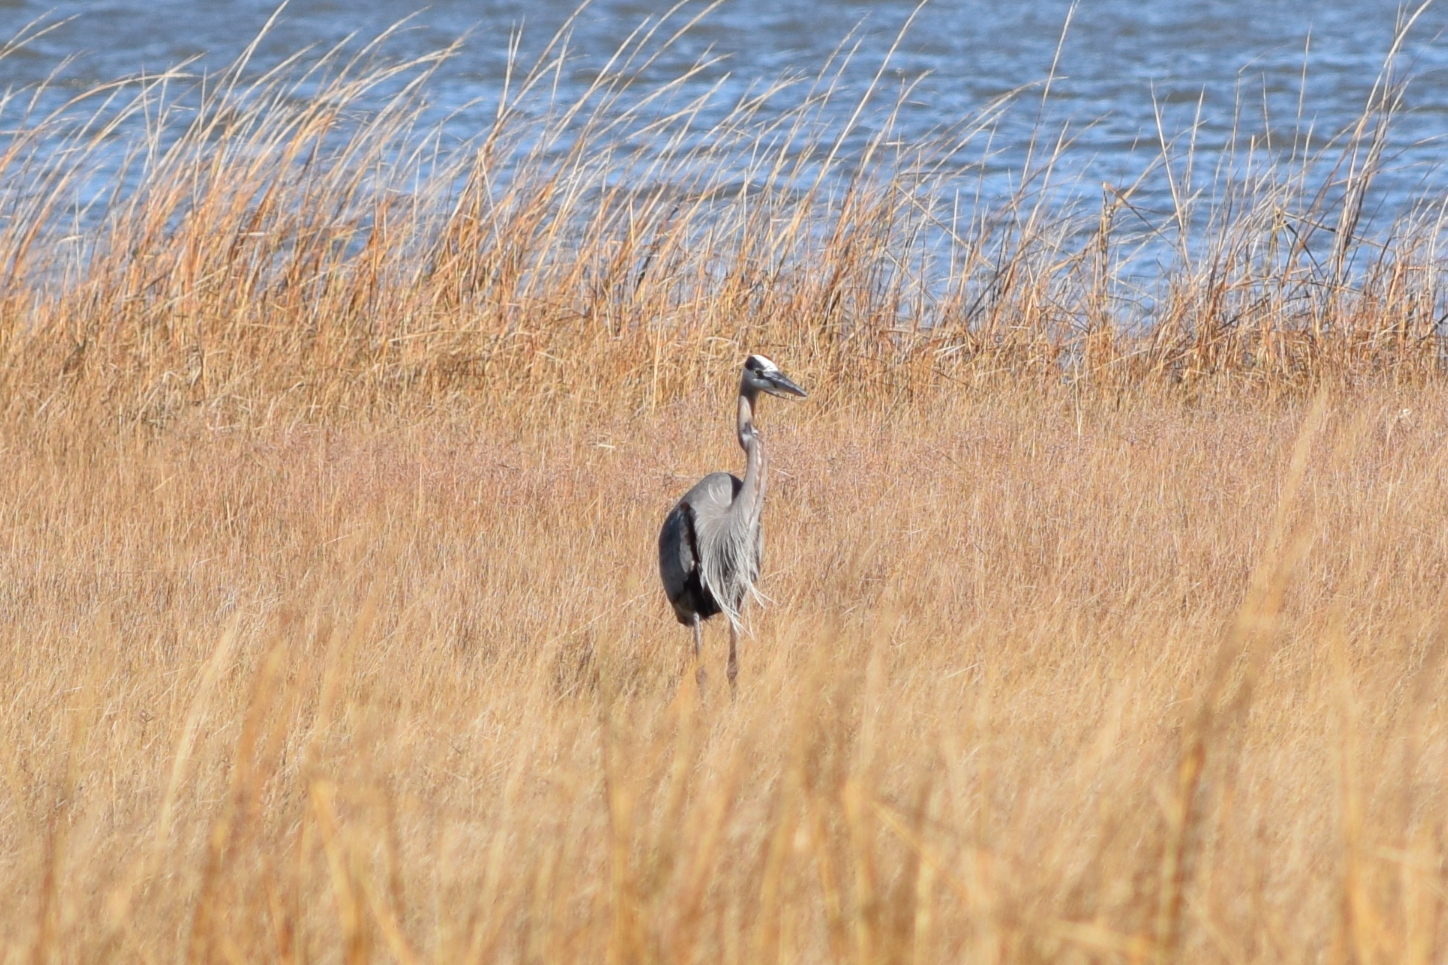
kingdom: Animalia
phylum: Chordata
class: Aves
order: Pelecaniformes
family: Ardeidae
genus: Ardea
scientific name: Ardea herodias
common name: Great blue heron
